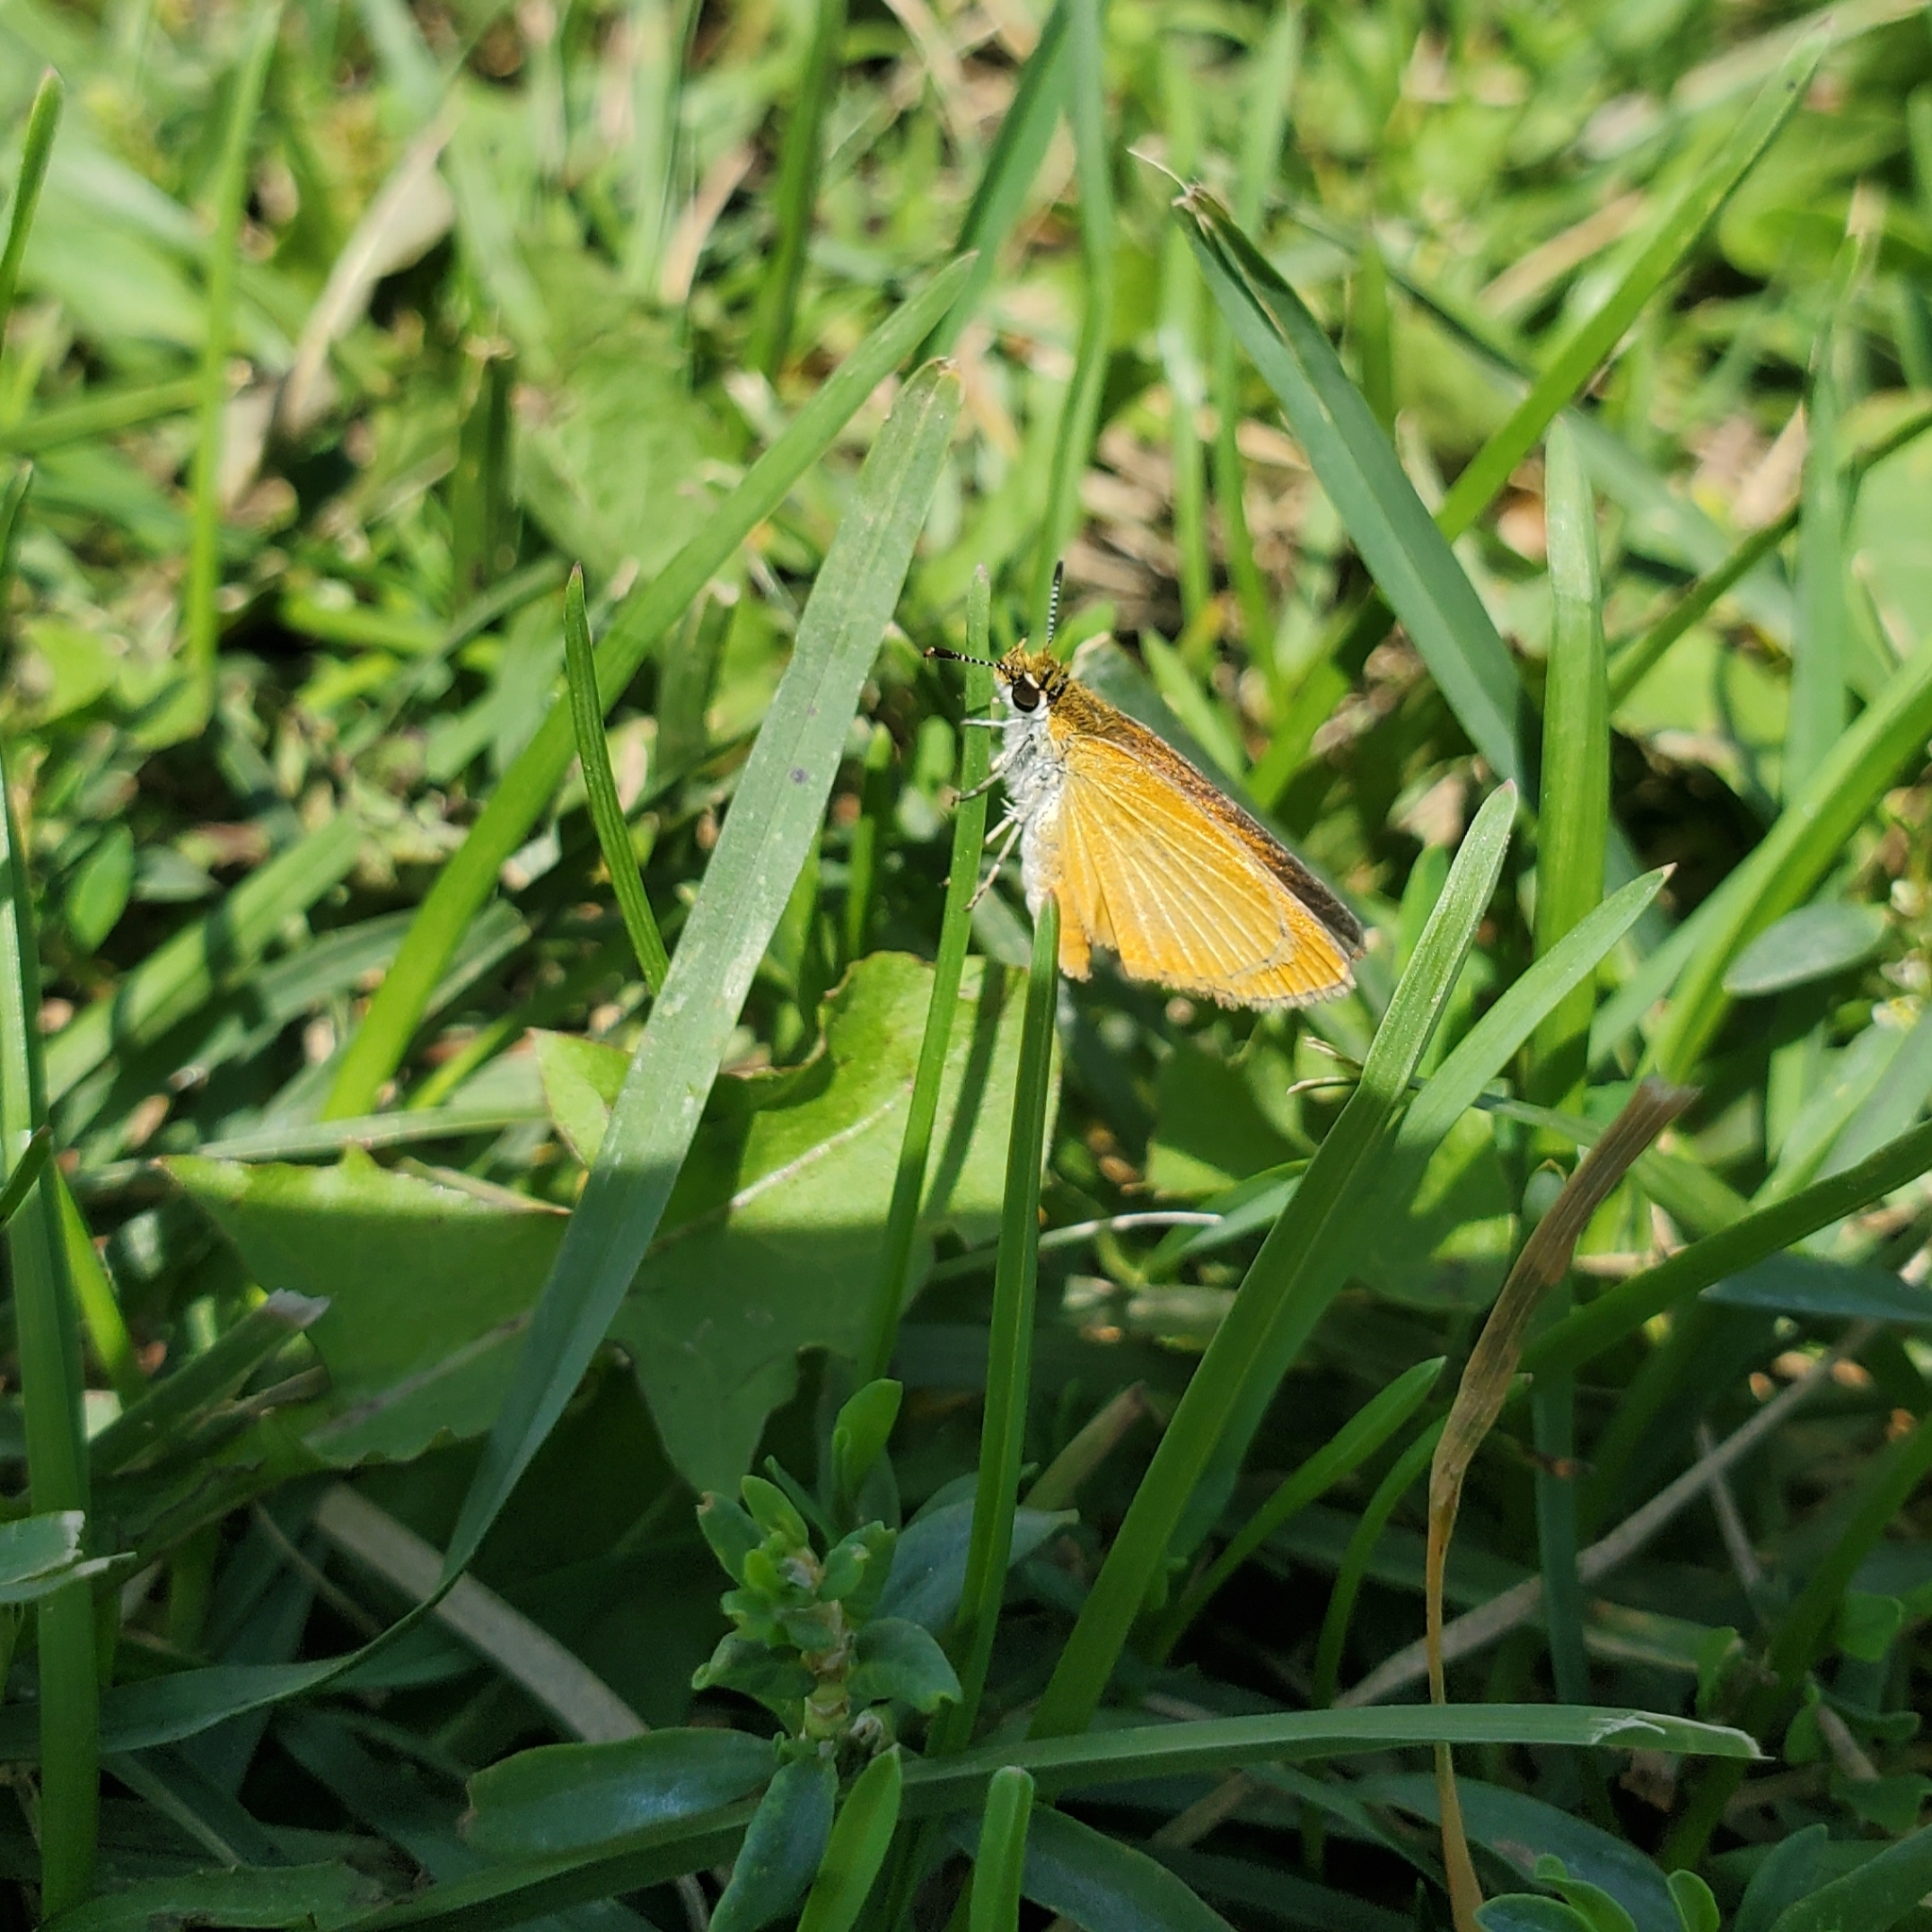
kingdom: Animalia
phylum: Arthropoda
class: Insecta
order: Lepidoptera
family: Hesperiidae
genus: Ancyloxypha
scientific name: Ancyloxypha numitor
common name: Least skipper
